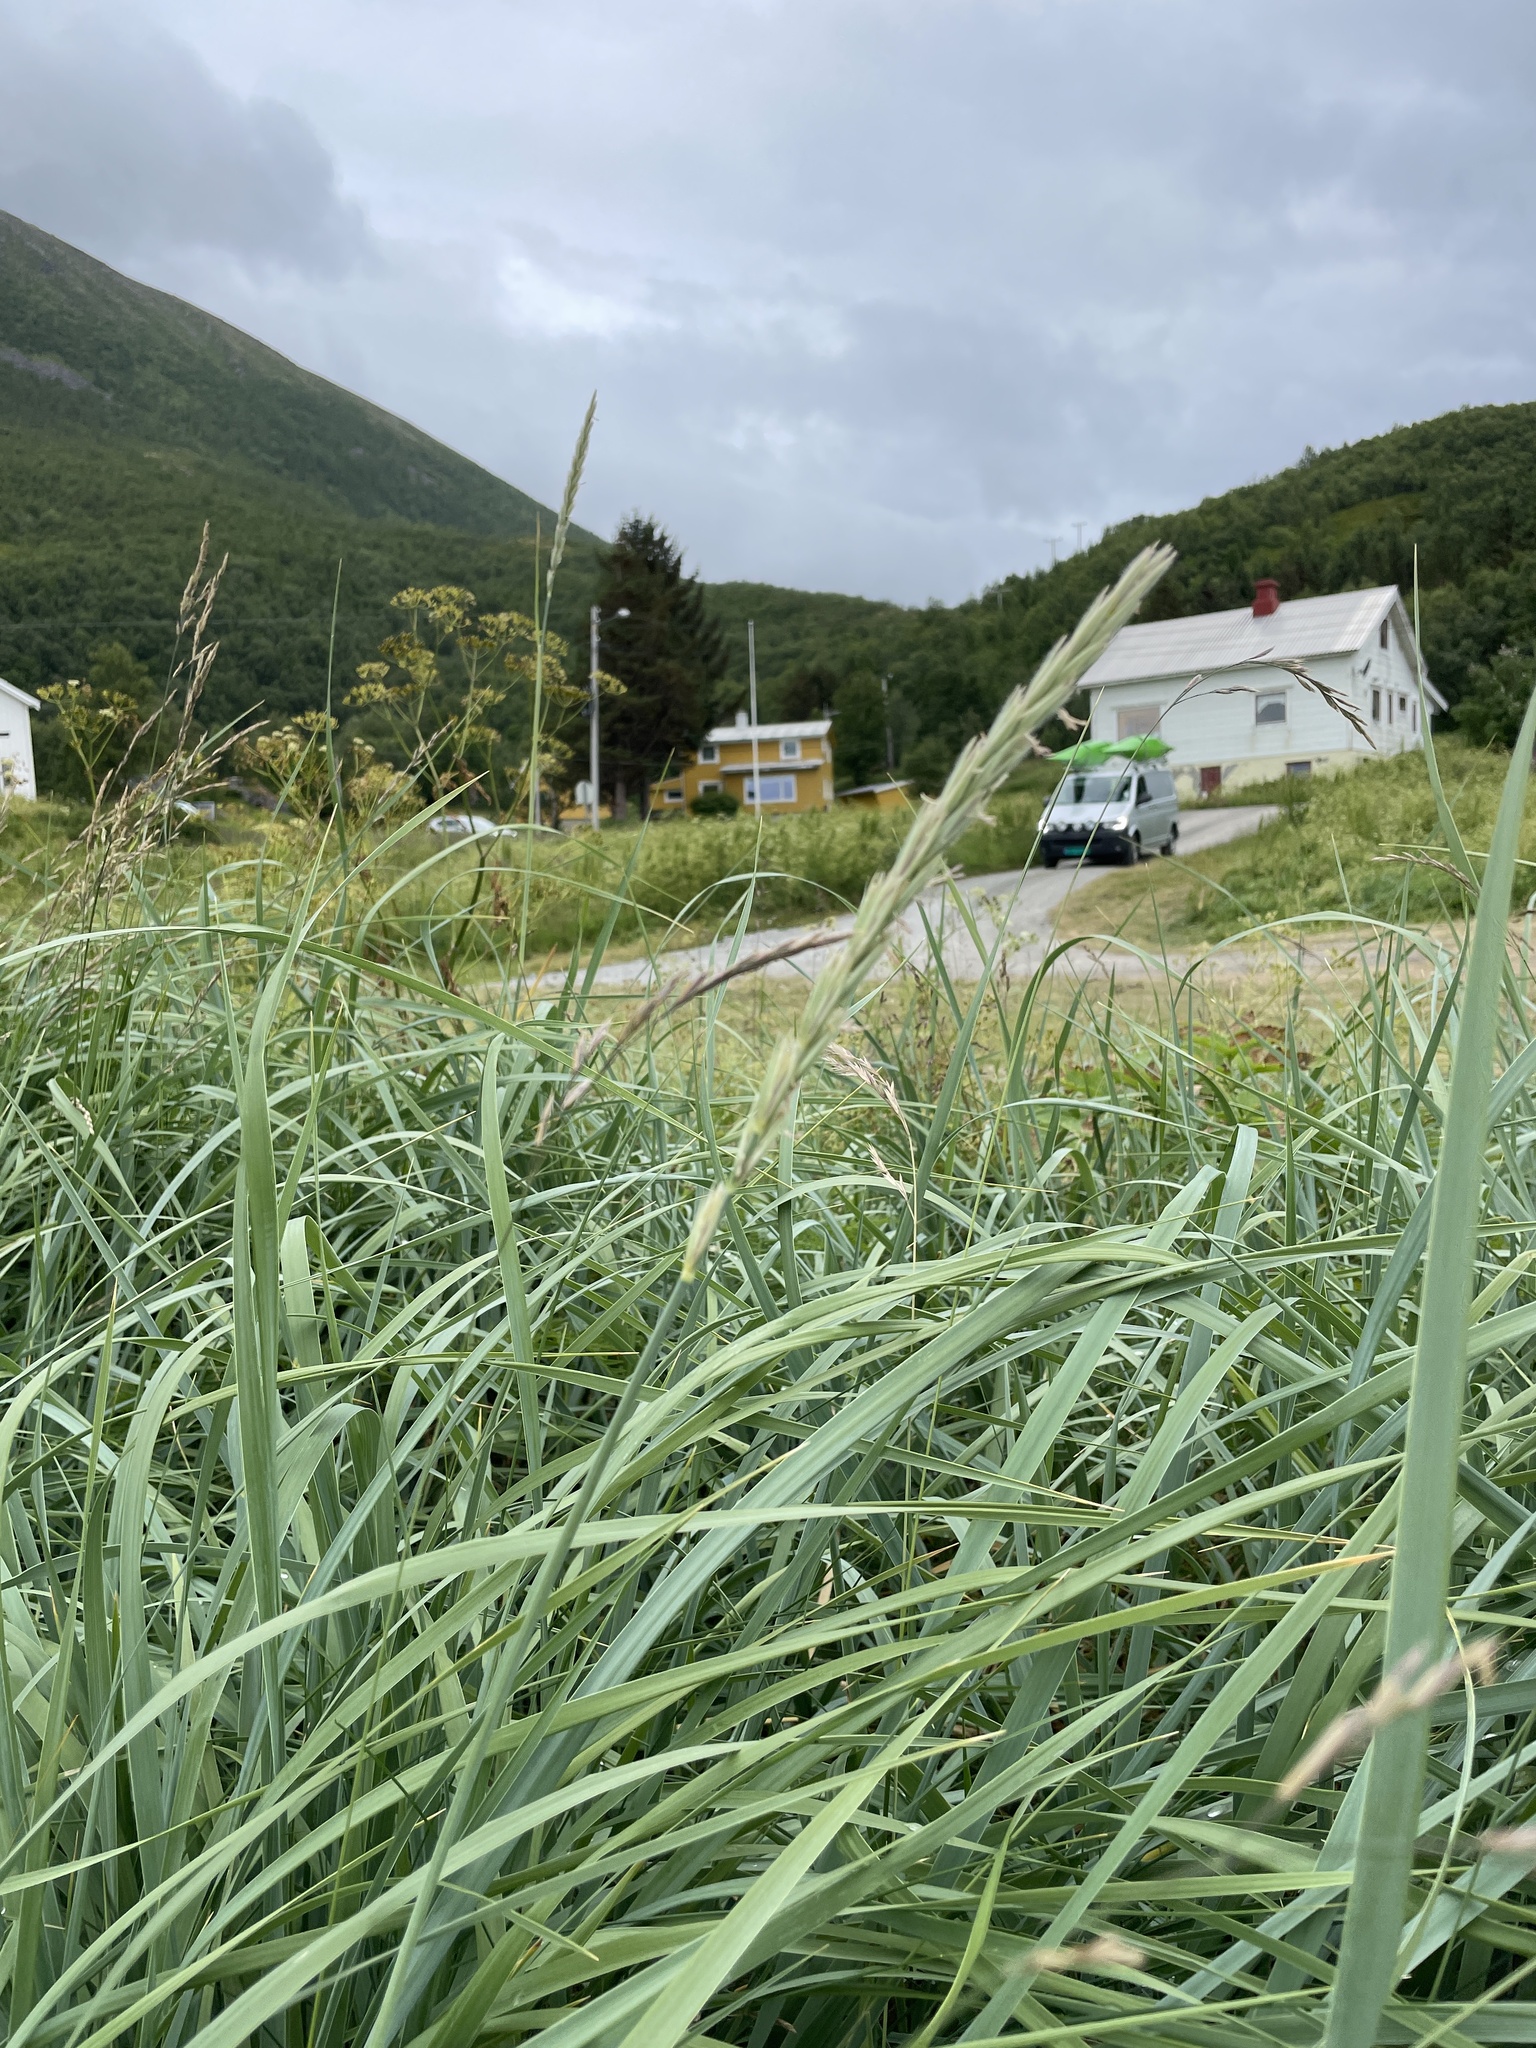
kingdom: Plantae
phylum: Tracheophyta
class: Liliopsida
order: Poales
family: Poaceae
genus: Leymus
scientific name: Leymus arenarius
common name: Lyme-grass
